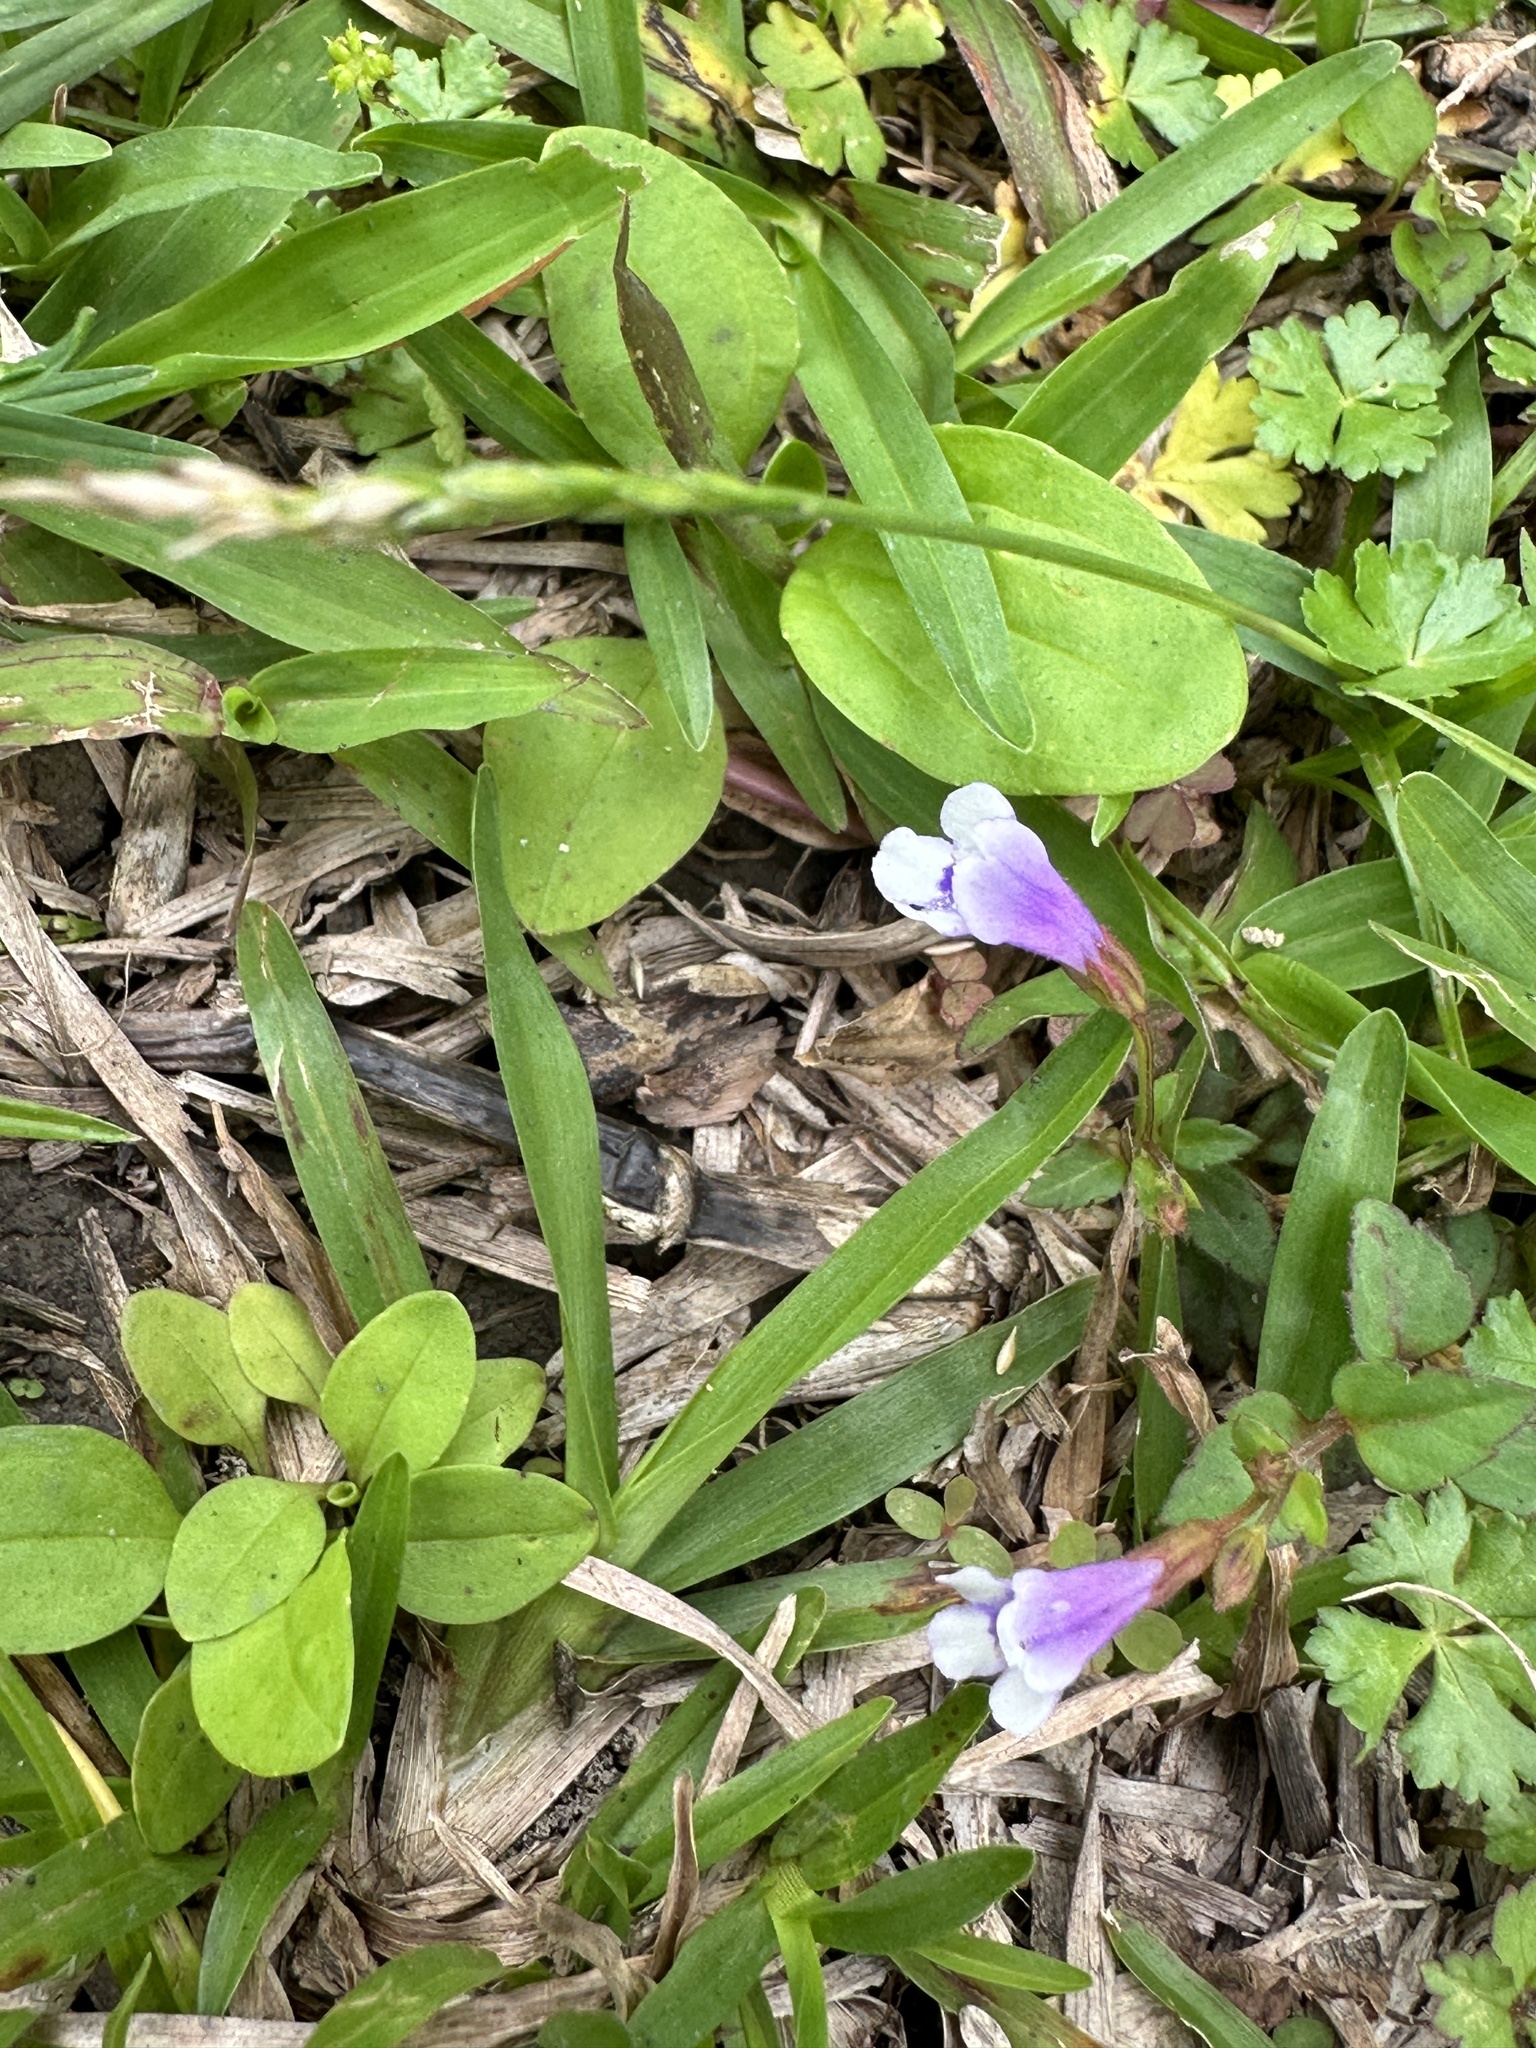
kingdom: Plantae
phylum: Tracheophyta
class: Magnoliopsida
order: Lamiales
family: Linderniaceae
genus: Torenia
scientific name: Torenia crustacea
